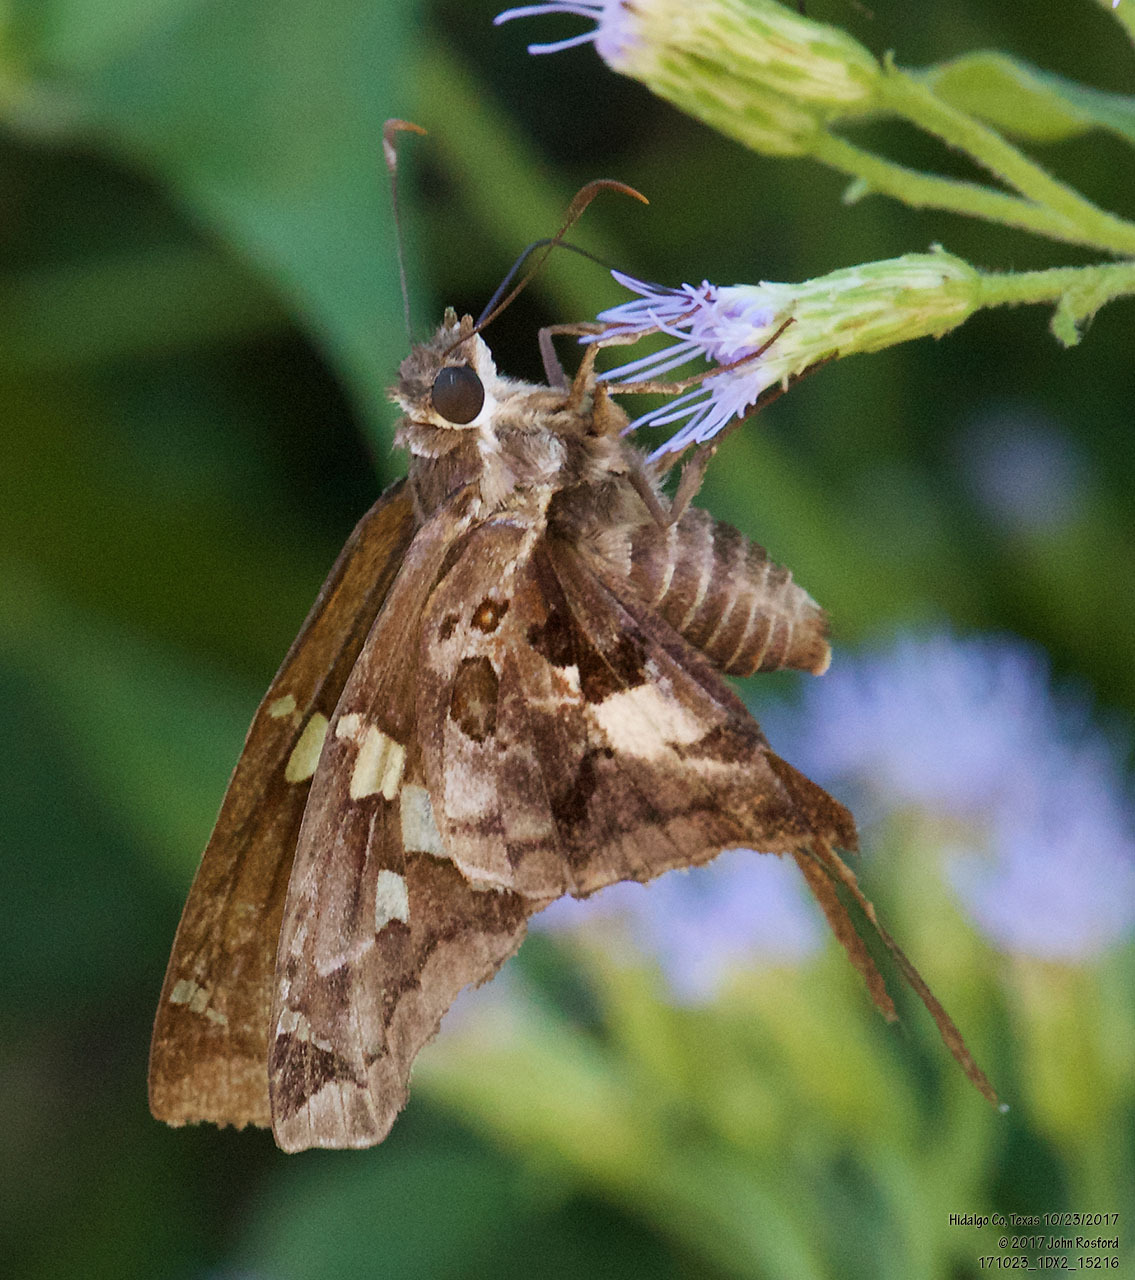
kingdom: Animalia
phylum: Arthropoda
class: Insecta
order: Lepidoptera
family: Hesperiidae
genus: Chioides
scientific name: Chioides zilpa
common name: Zilpa longtail
